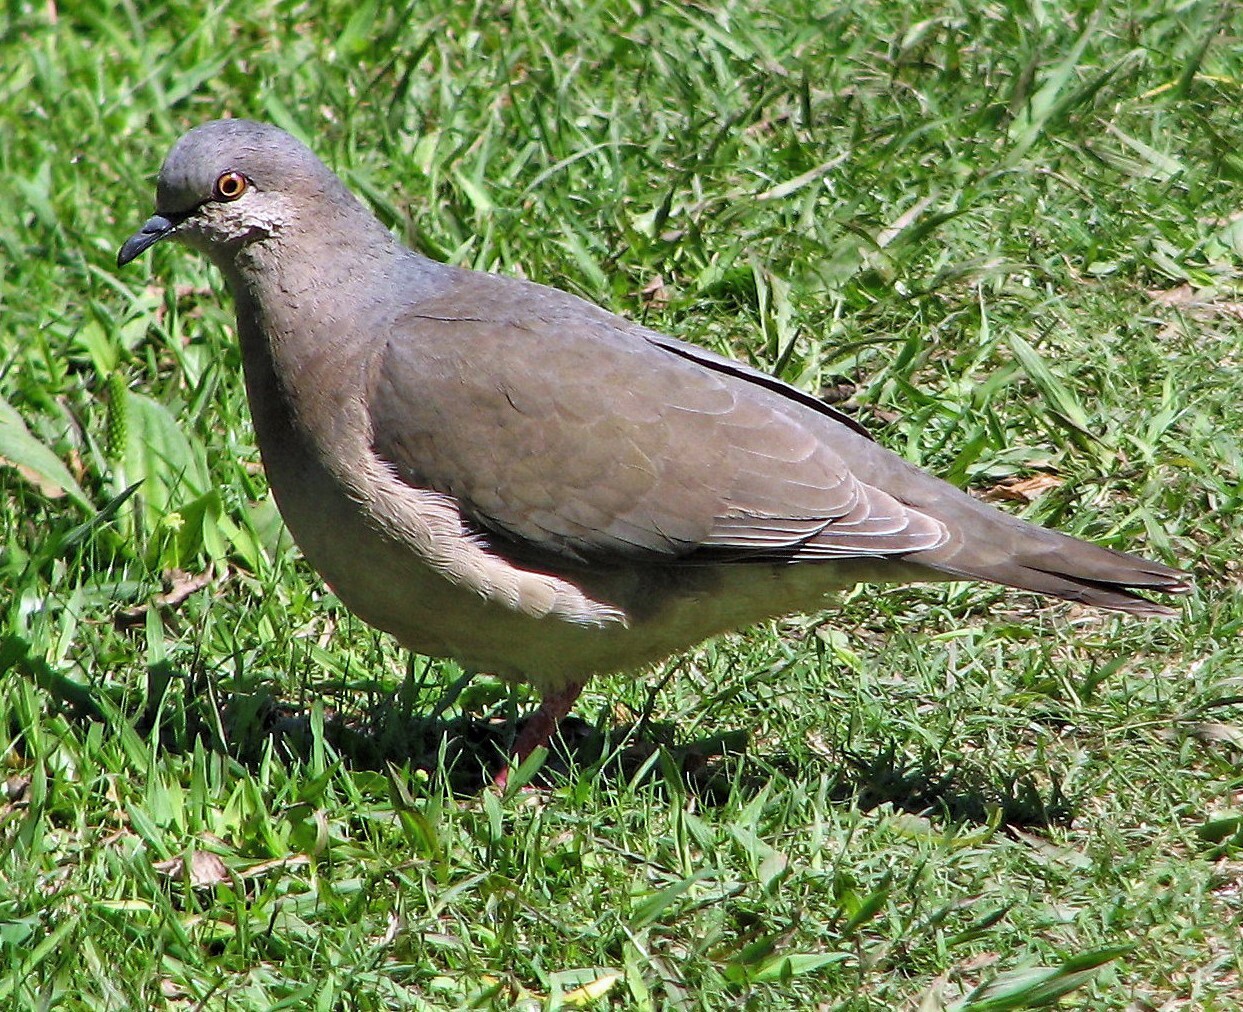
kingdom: Animalia
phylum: Chordata
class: Aves
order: Columbiformes
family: Columbidae
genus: Leptotila
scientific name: Leptotila verreauxi
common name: White-tipped dove
